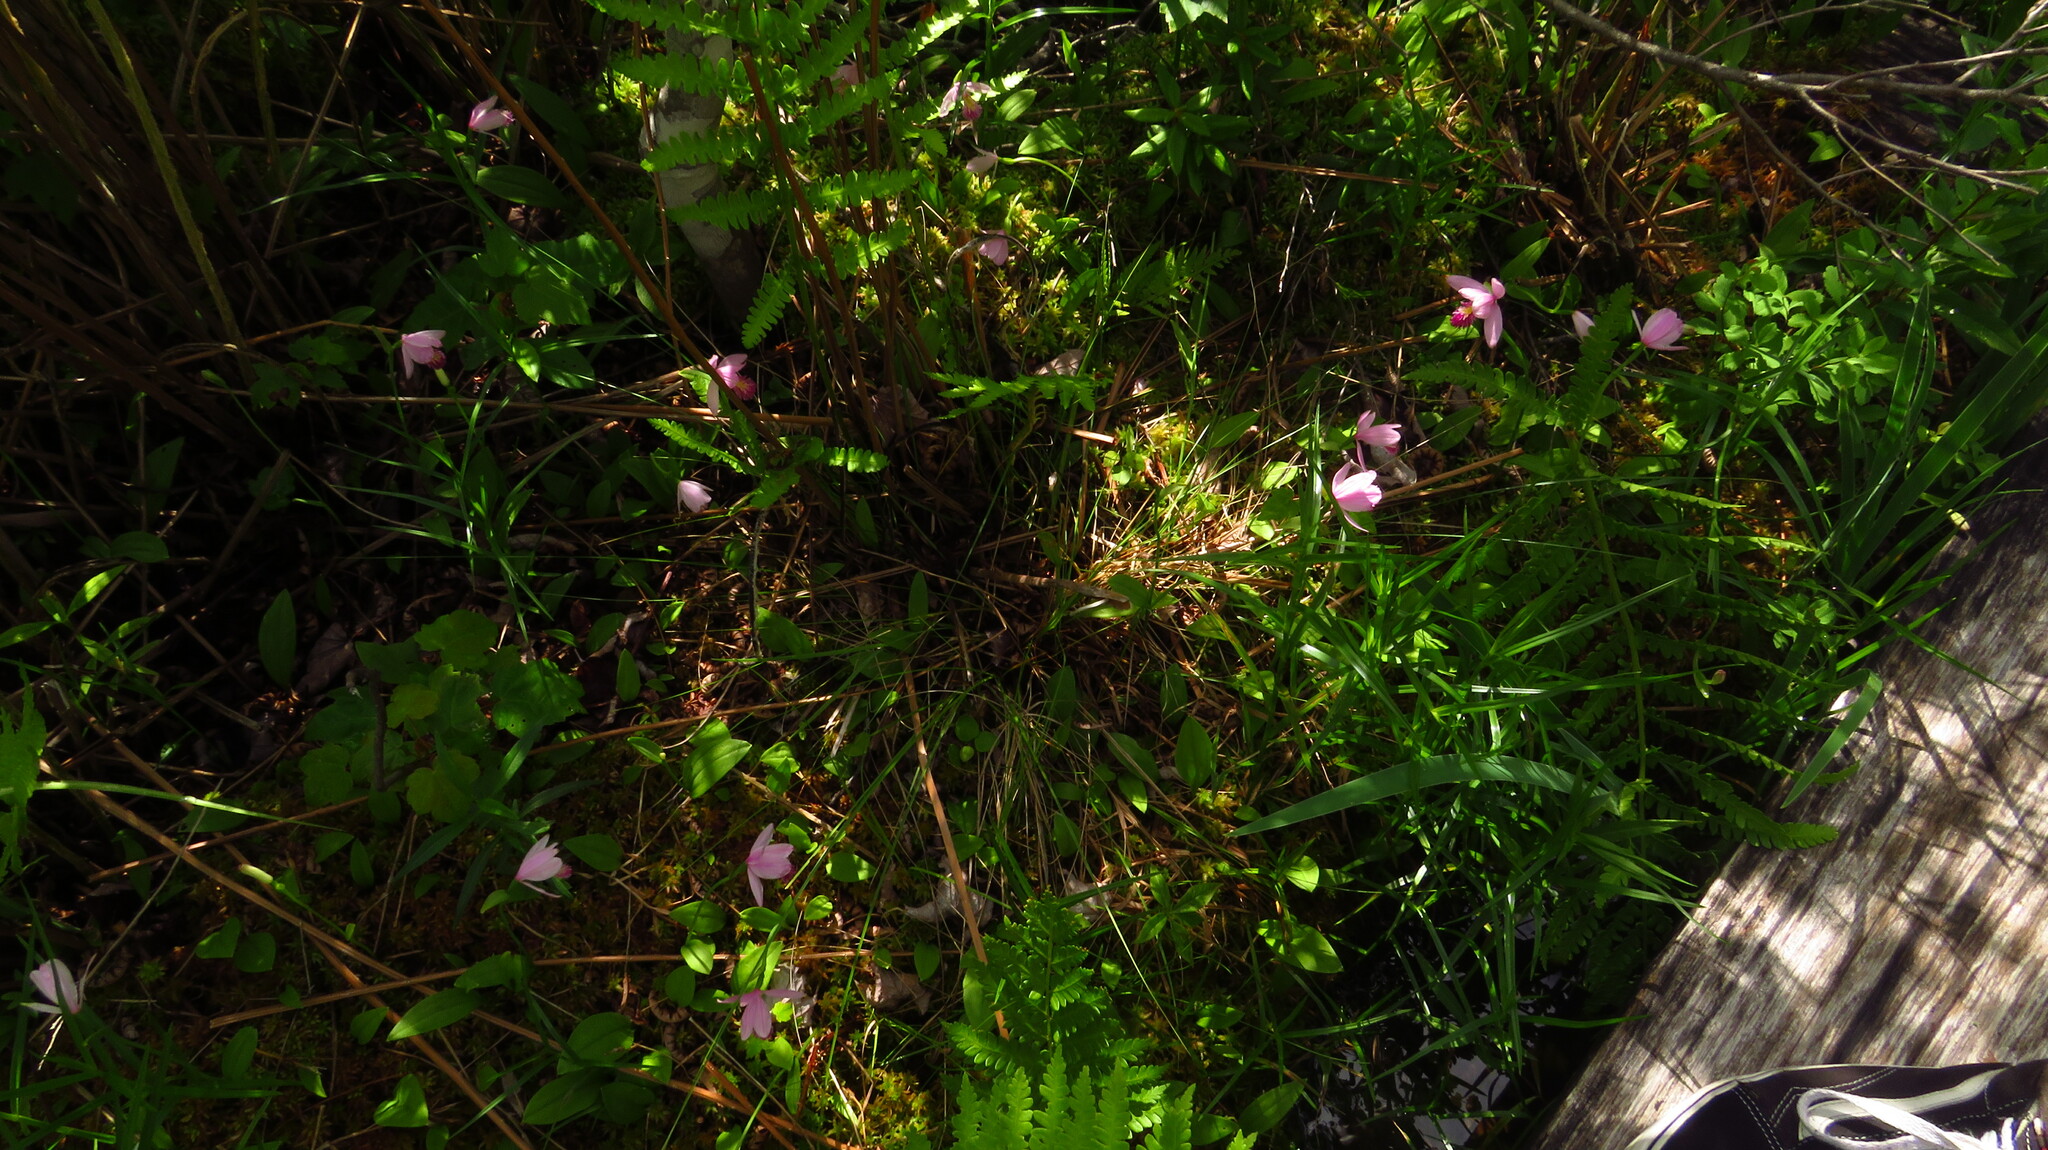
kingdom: Plantae
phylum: Tracheophyta
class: Liliopsida
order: Asparagales
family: Orchidaceae
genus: Pogonia
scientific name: Pogonia ophioglossoides
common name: Rose pogonia
